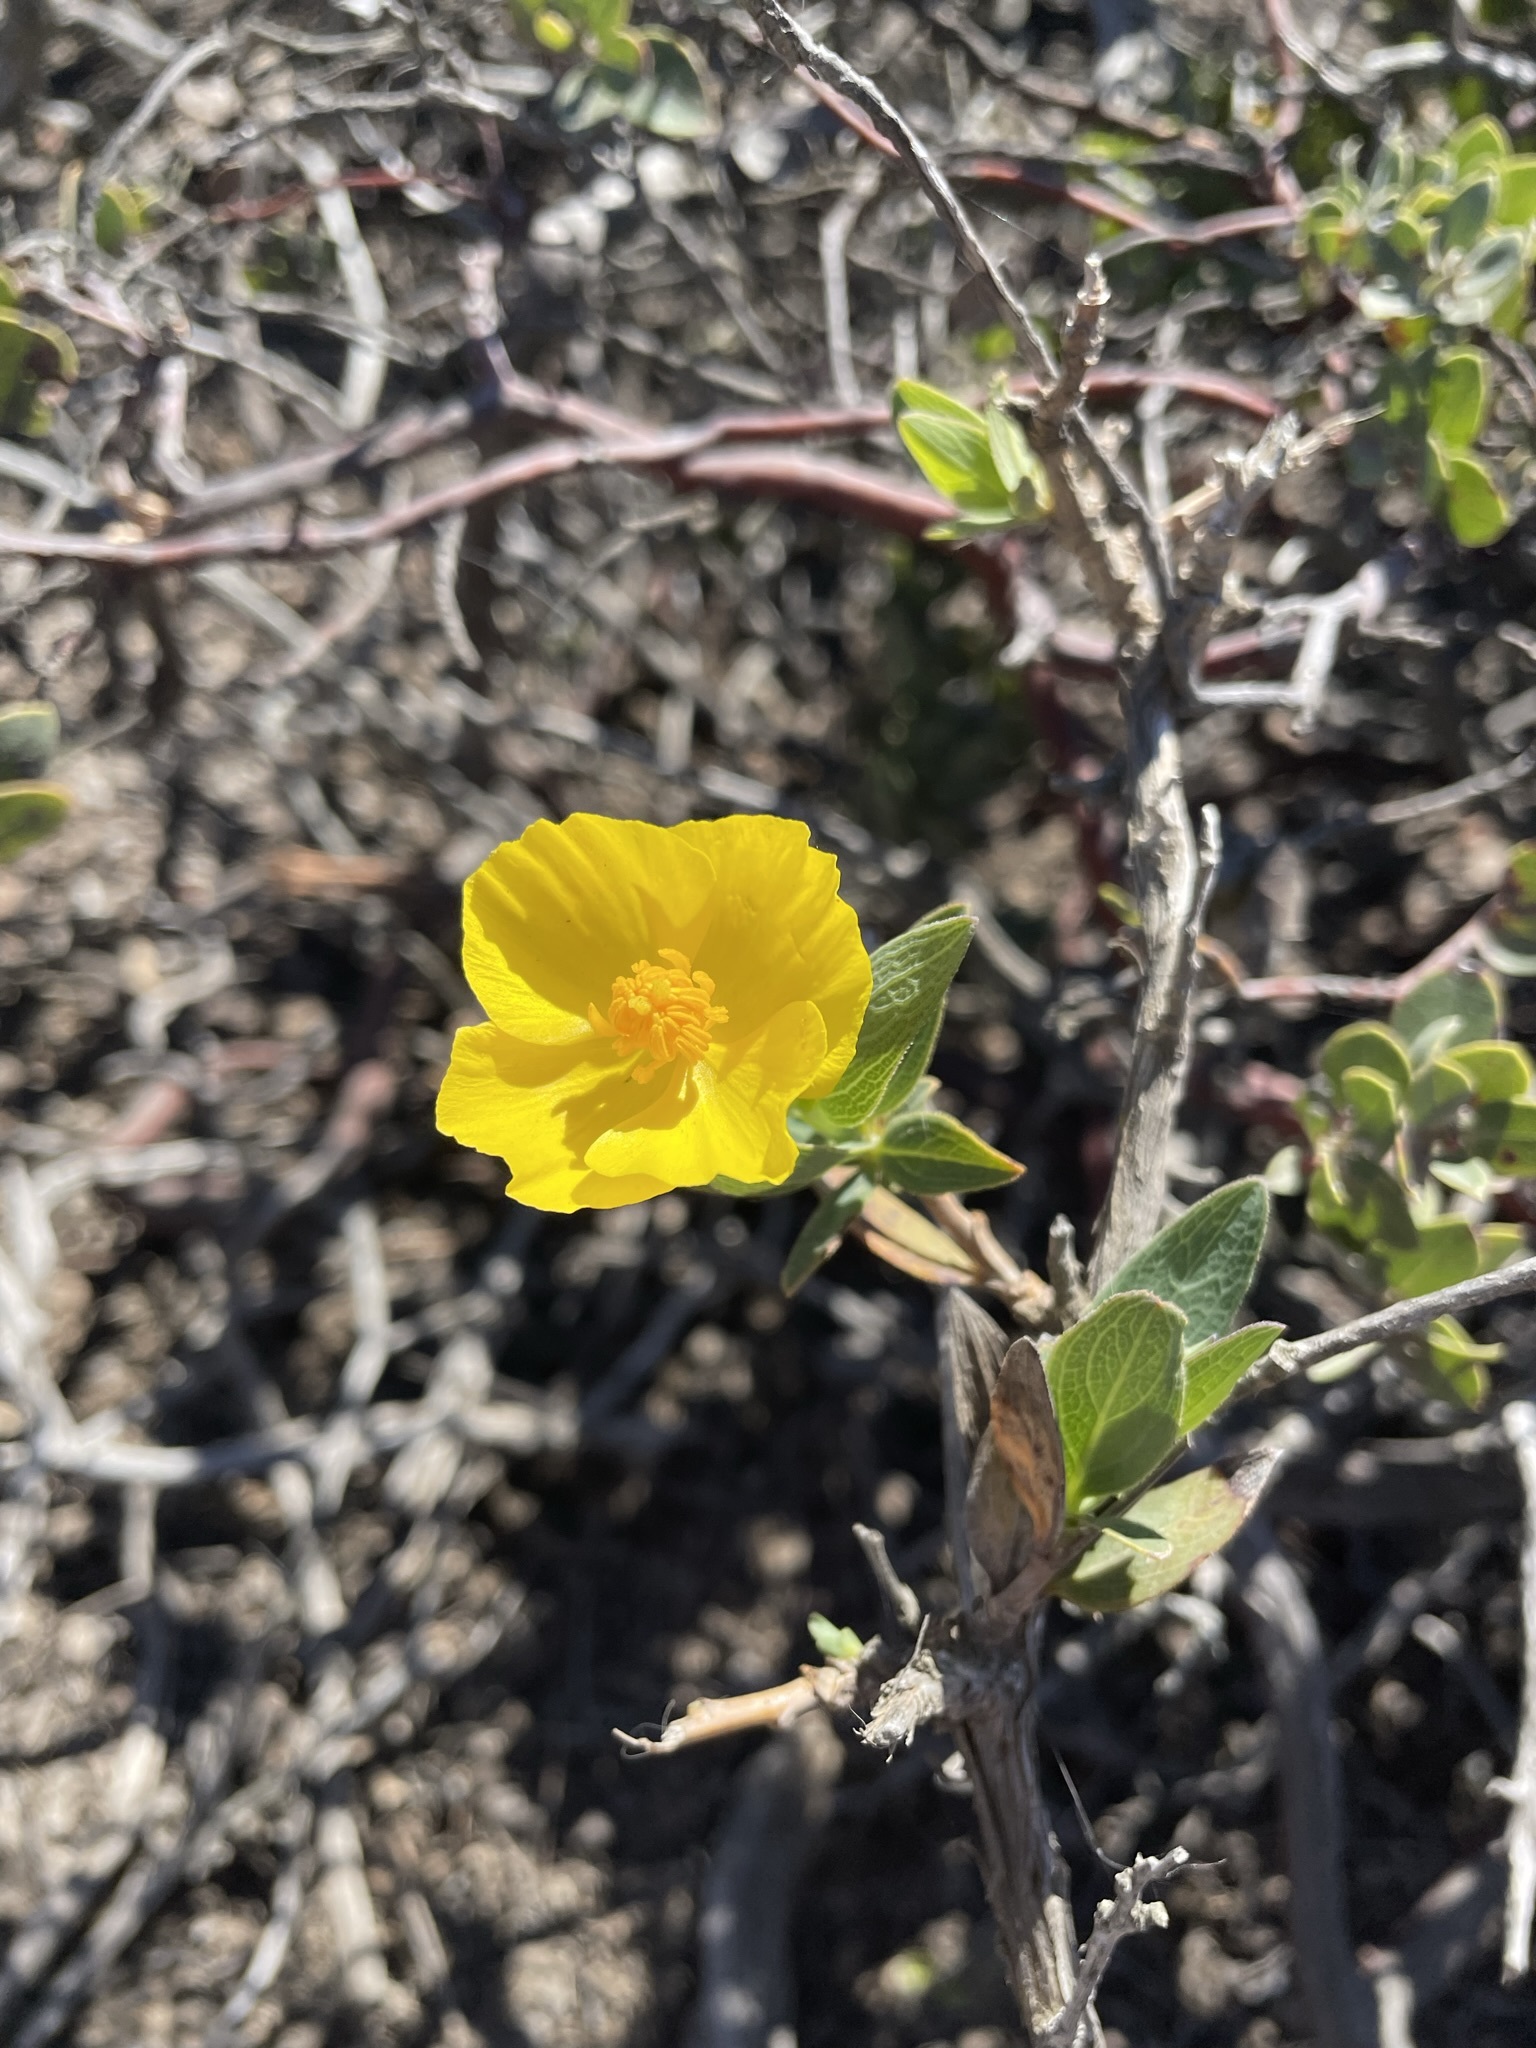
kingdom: Plantae
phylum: Tracheophyta
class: Magnoliopsida
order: Ranunculales
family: Papaveraceae
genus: Dendromecon
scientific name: Dendromecon rigida
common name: Tree poppy
